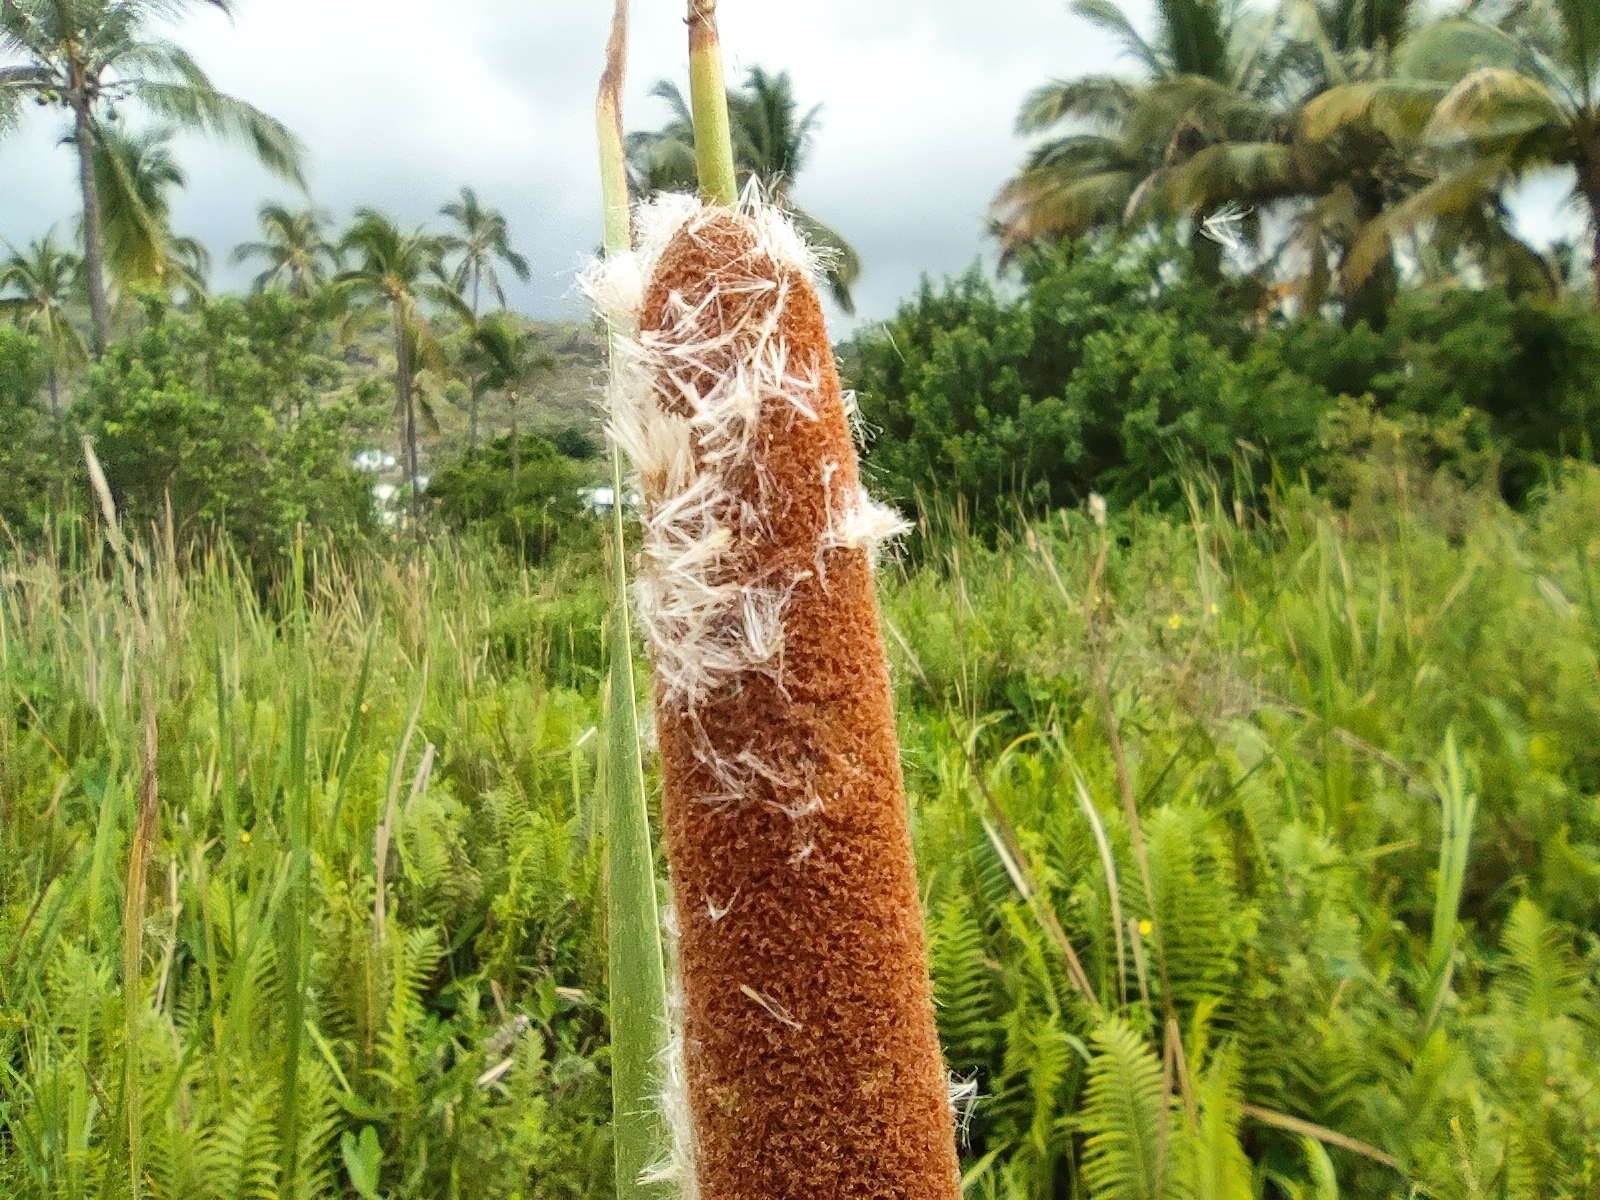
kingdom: Plantae
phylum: Tracheophyta
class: Liliopsida
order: Poales
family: Typhaceae
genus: Typha
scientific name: Typha domingensis
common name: Southern cattail
